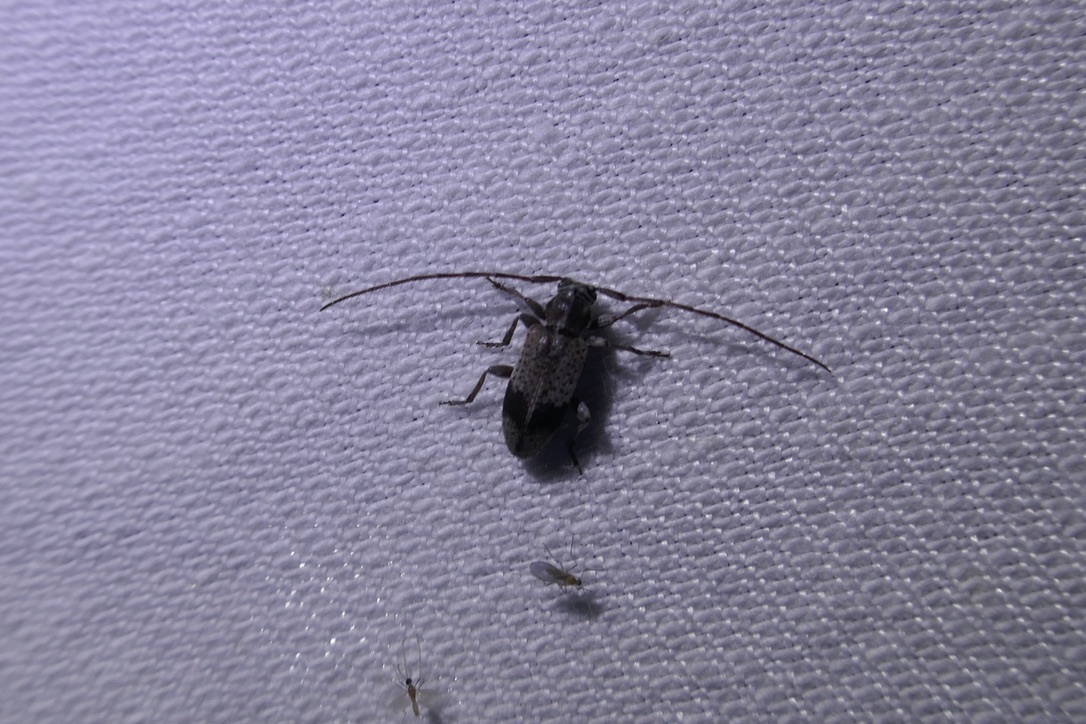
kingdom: Animalia
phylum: Arthropoda
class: Insecta
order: Coleoptera
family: Cerambycidae
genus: Exocentrus
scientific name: Exocentrus punctipennis
